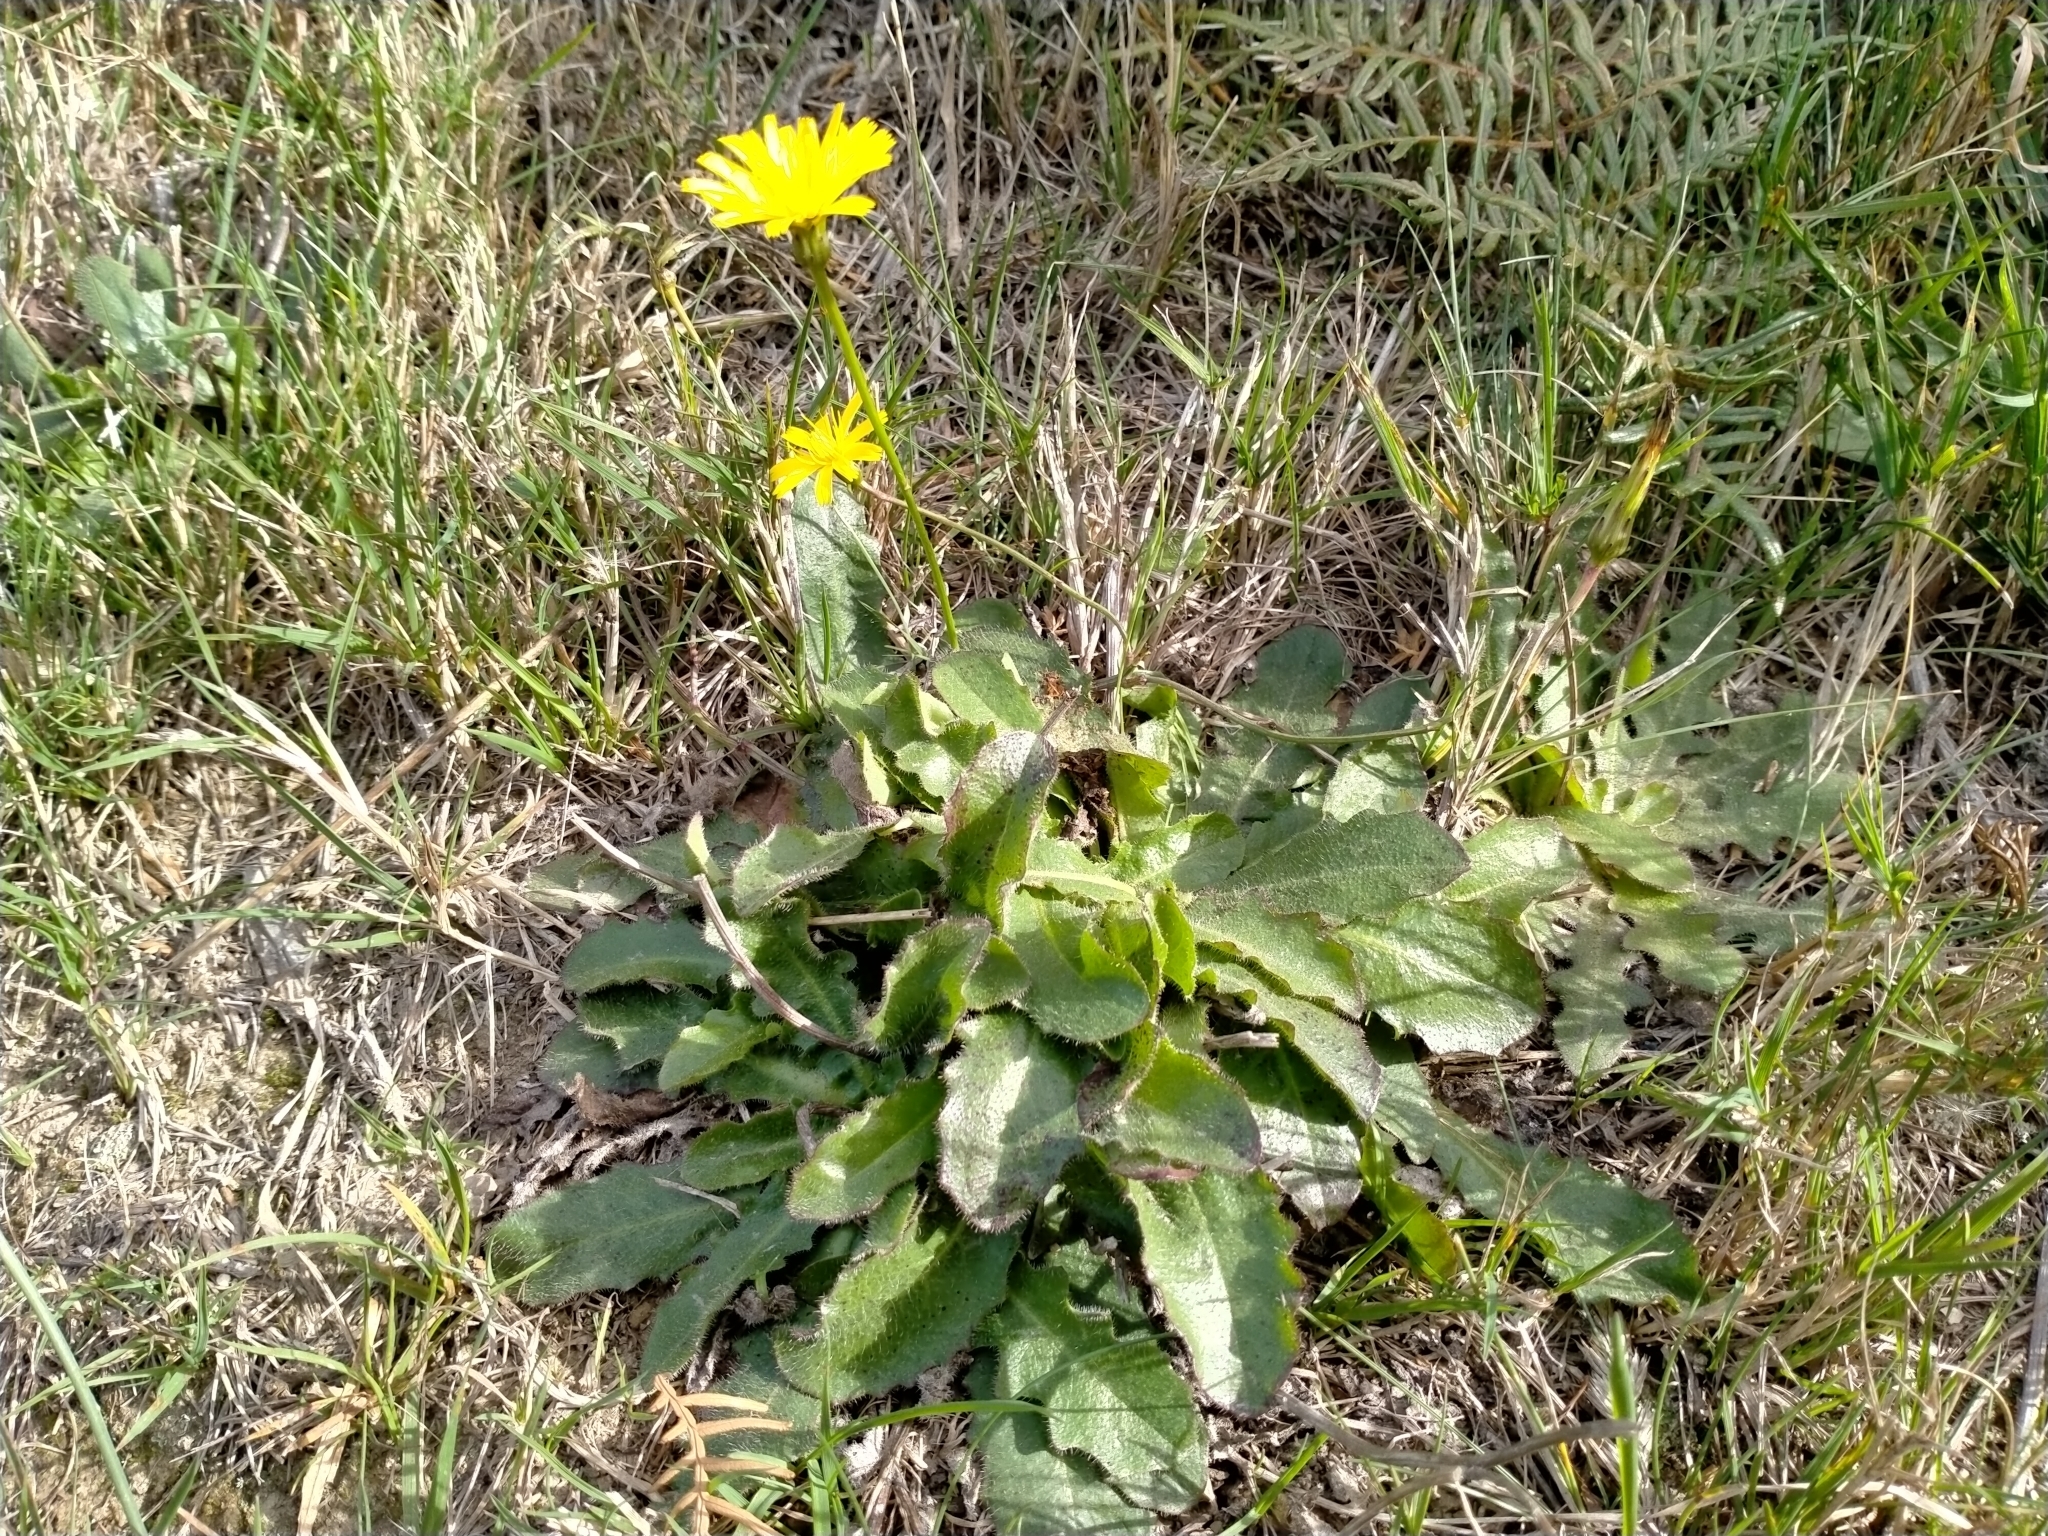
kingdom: Plantae
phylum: Tracheophyta
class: Magnoliopsida
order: Asterales
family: Asteraceae
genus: Hypochaeris
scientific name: Hypochaeris radicata
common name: Flatweed
